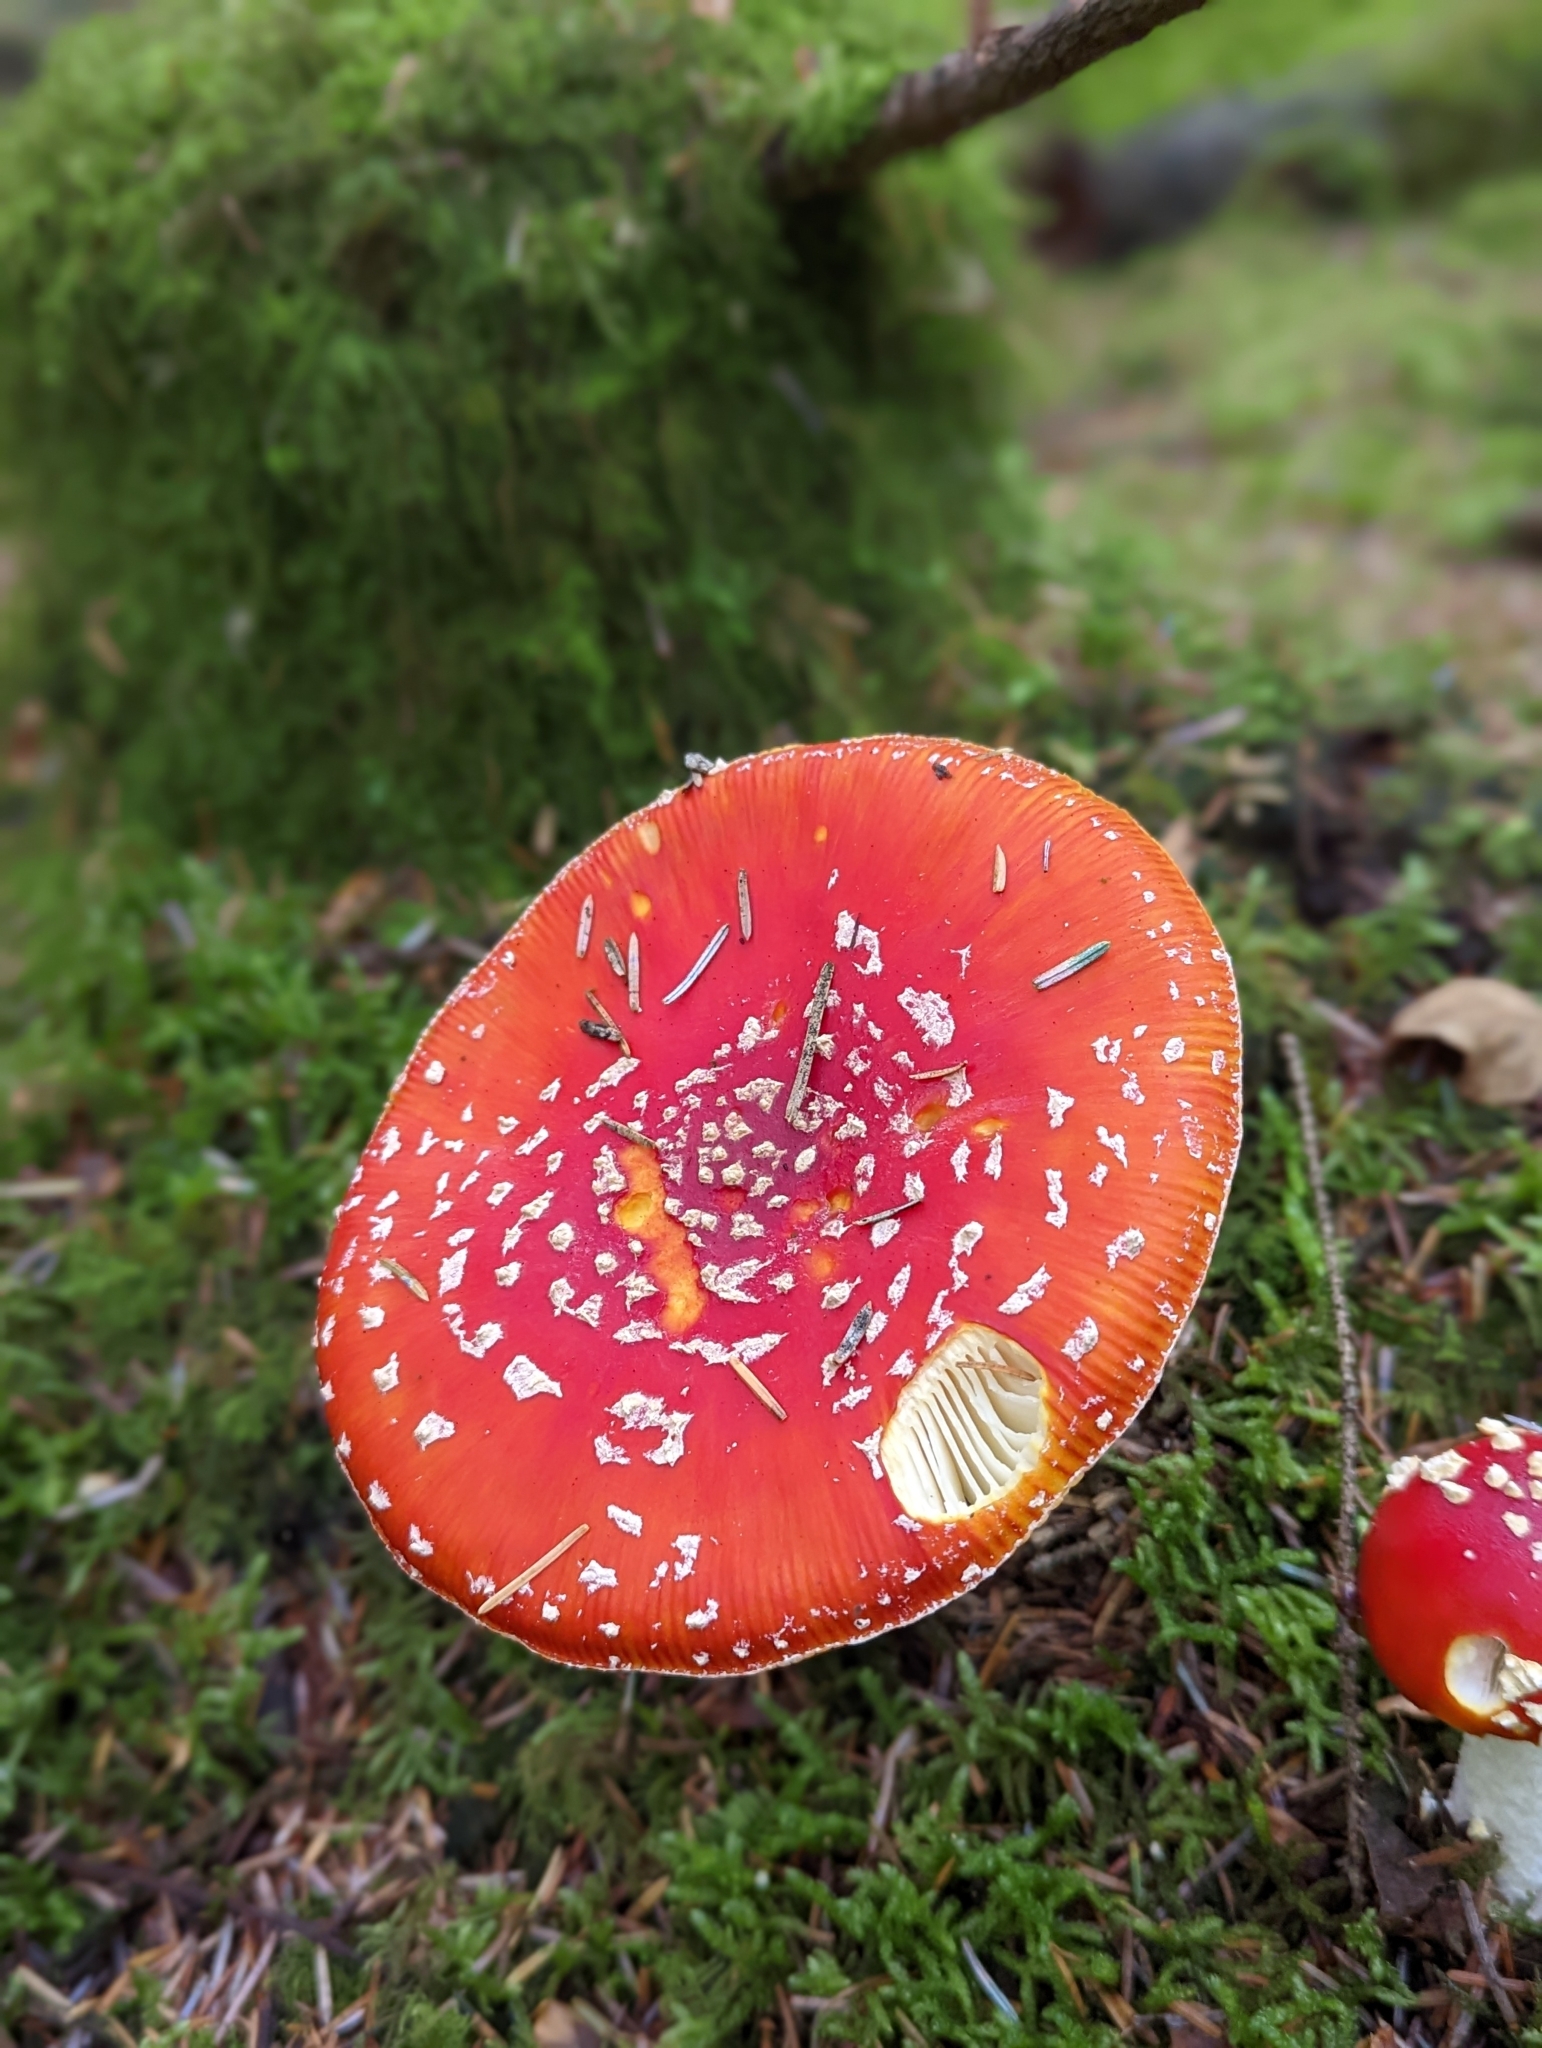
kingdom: Fungi
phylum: Basidiomycota
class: Agaricomycetes
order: Agaricales
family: Amanitaceae
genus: Amanita
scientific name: Amanita muscaria
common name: Fly agaric
